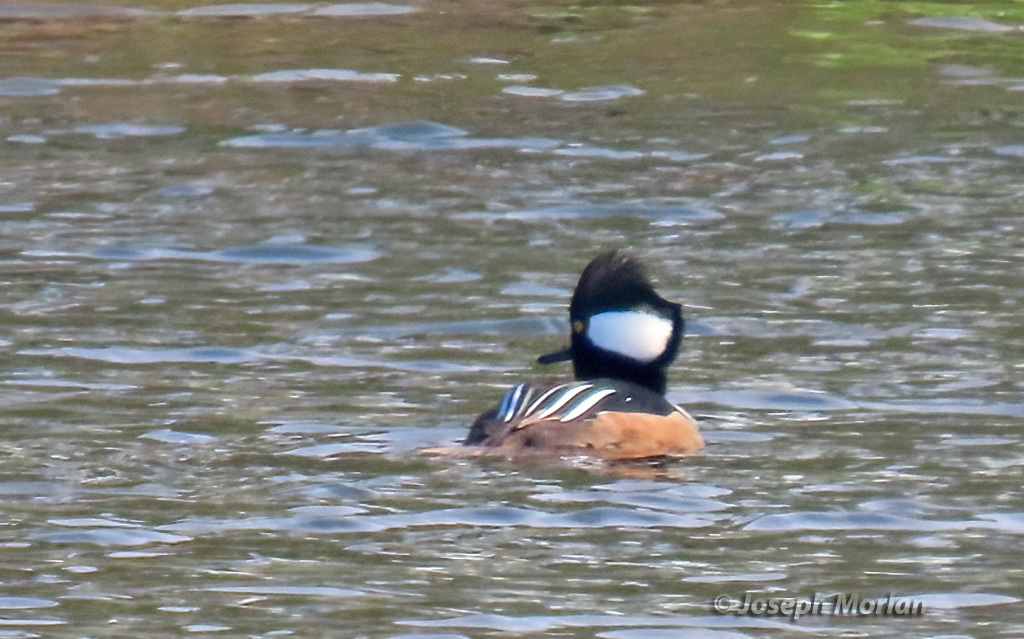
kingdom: Animalia
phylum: Chordata
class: Aves
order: Anseriformes
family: Anatidae
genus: Lophodytes
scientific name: Lophodytes cucullatus
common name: Hooded merganser
